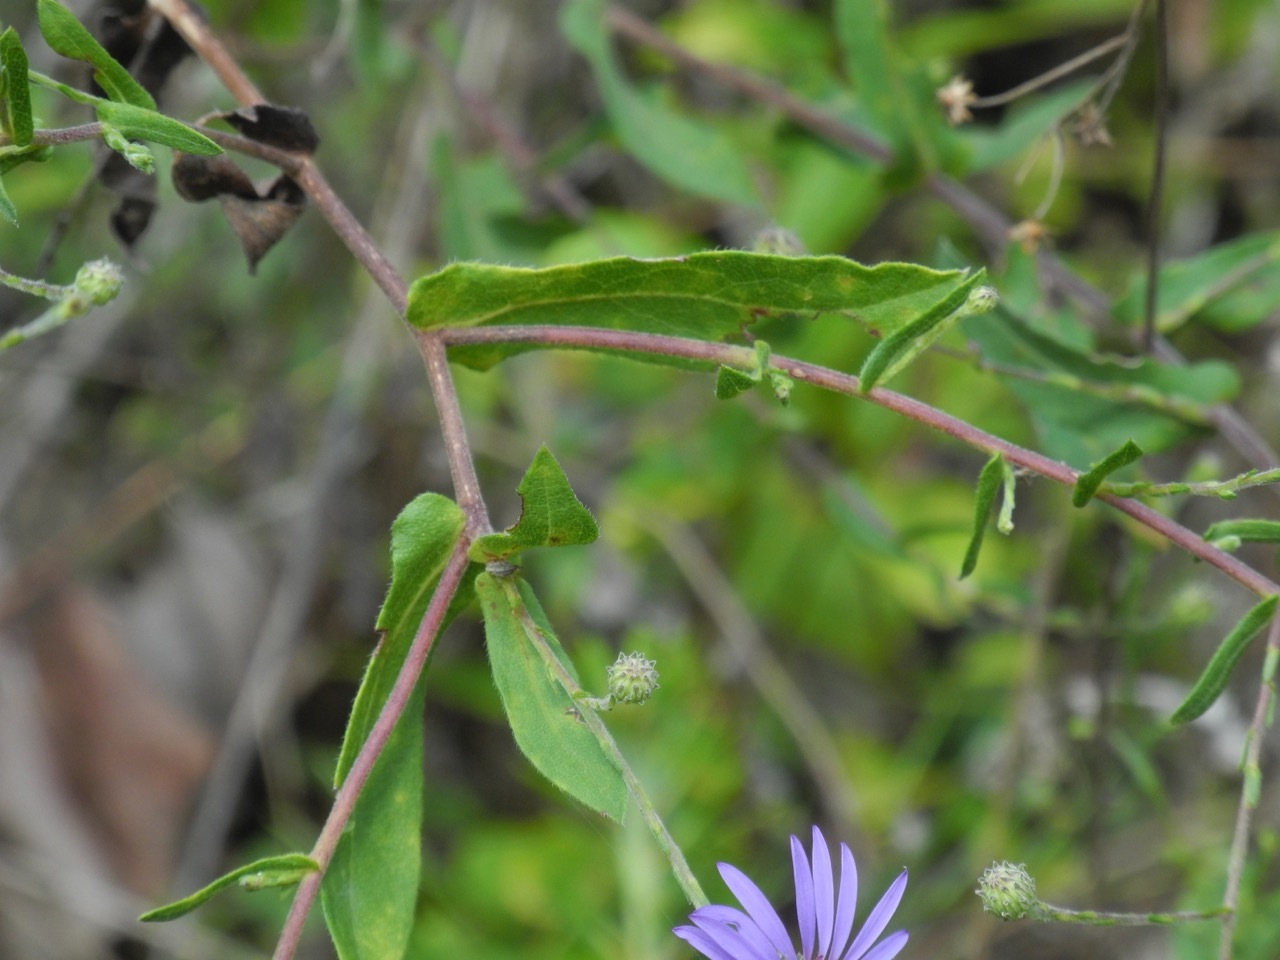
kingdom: Plantae
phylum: Tracheophyta
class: Magnoliopsida
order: Asterales
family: Asteraceae
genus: Symphyotrichum
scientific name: Symphyotrichum patens
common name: Late purple aster
